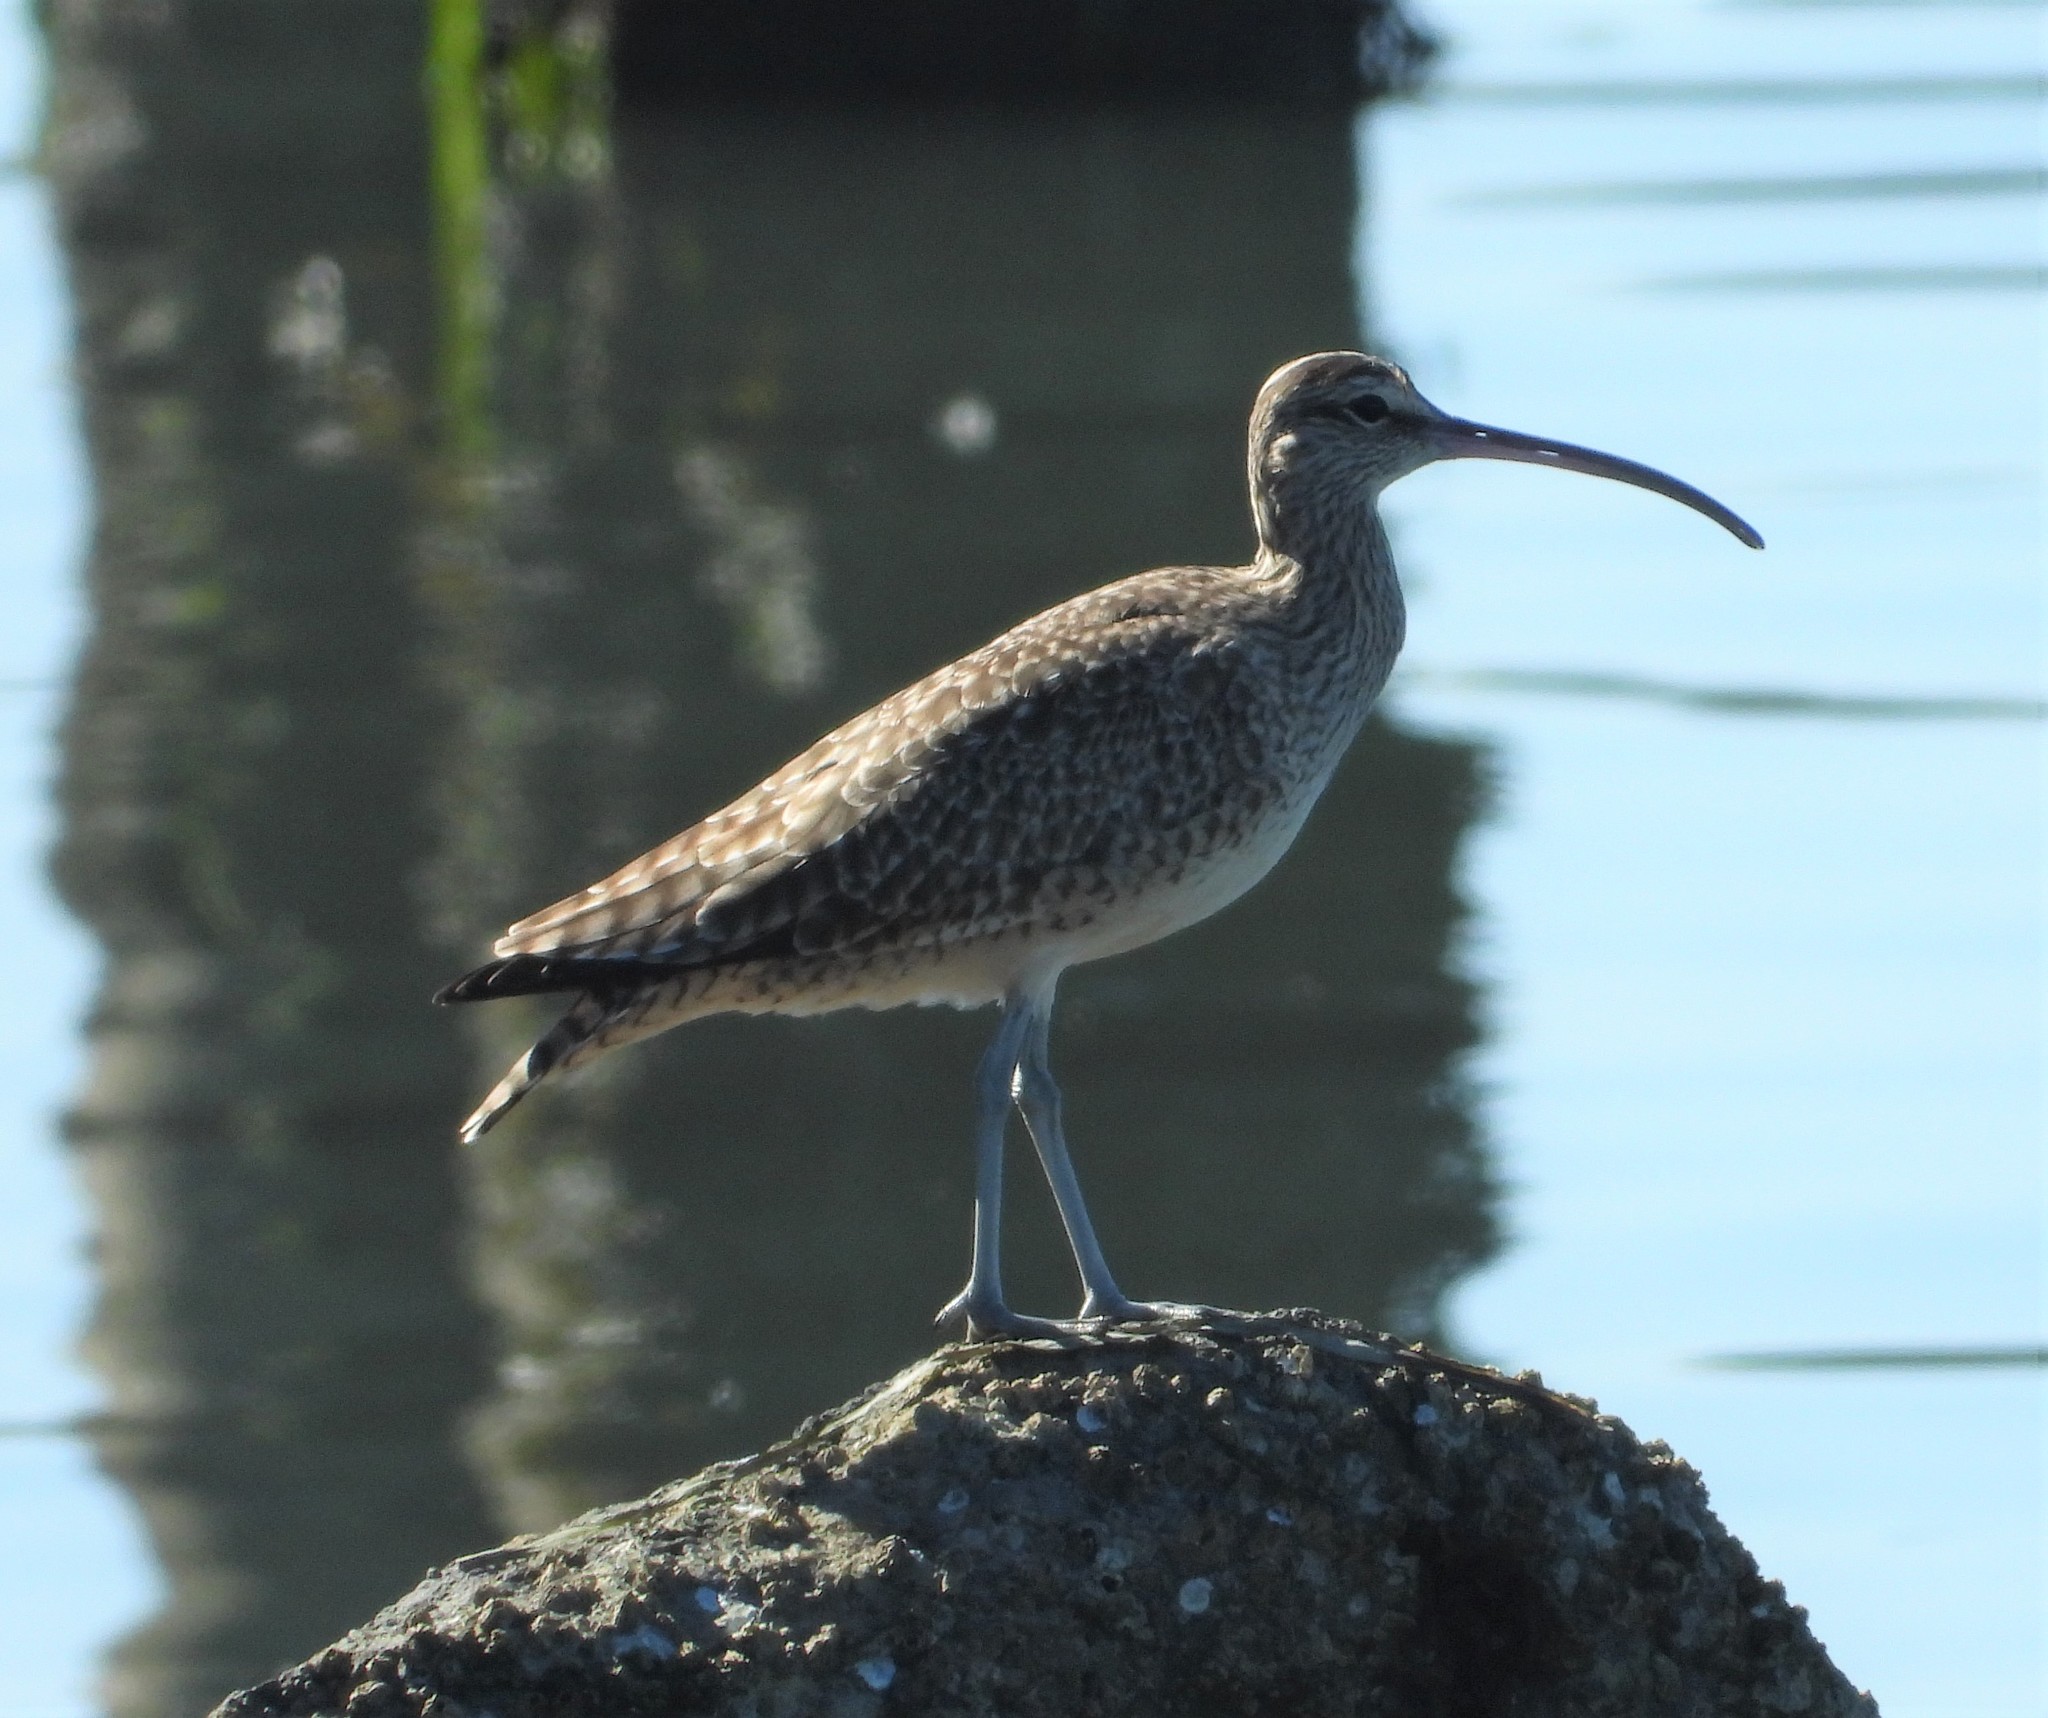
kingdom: Animalia
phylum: Chordata
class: Aves
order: Charadriiformes
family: Scolopacidae
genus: Numenius
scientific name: Numenius phaeopus
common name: Whimbrel
